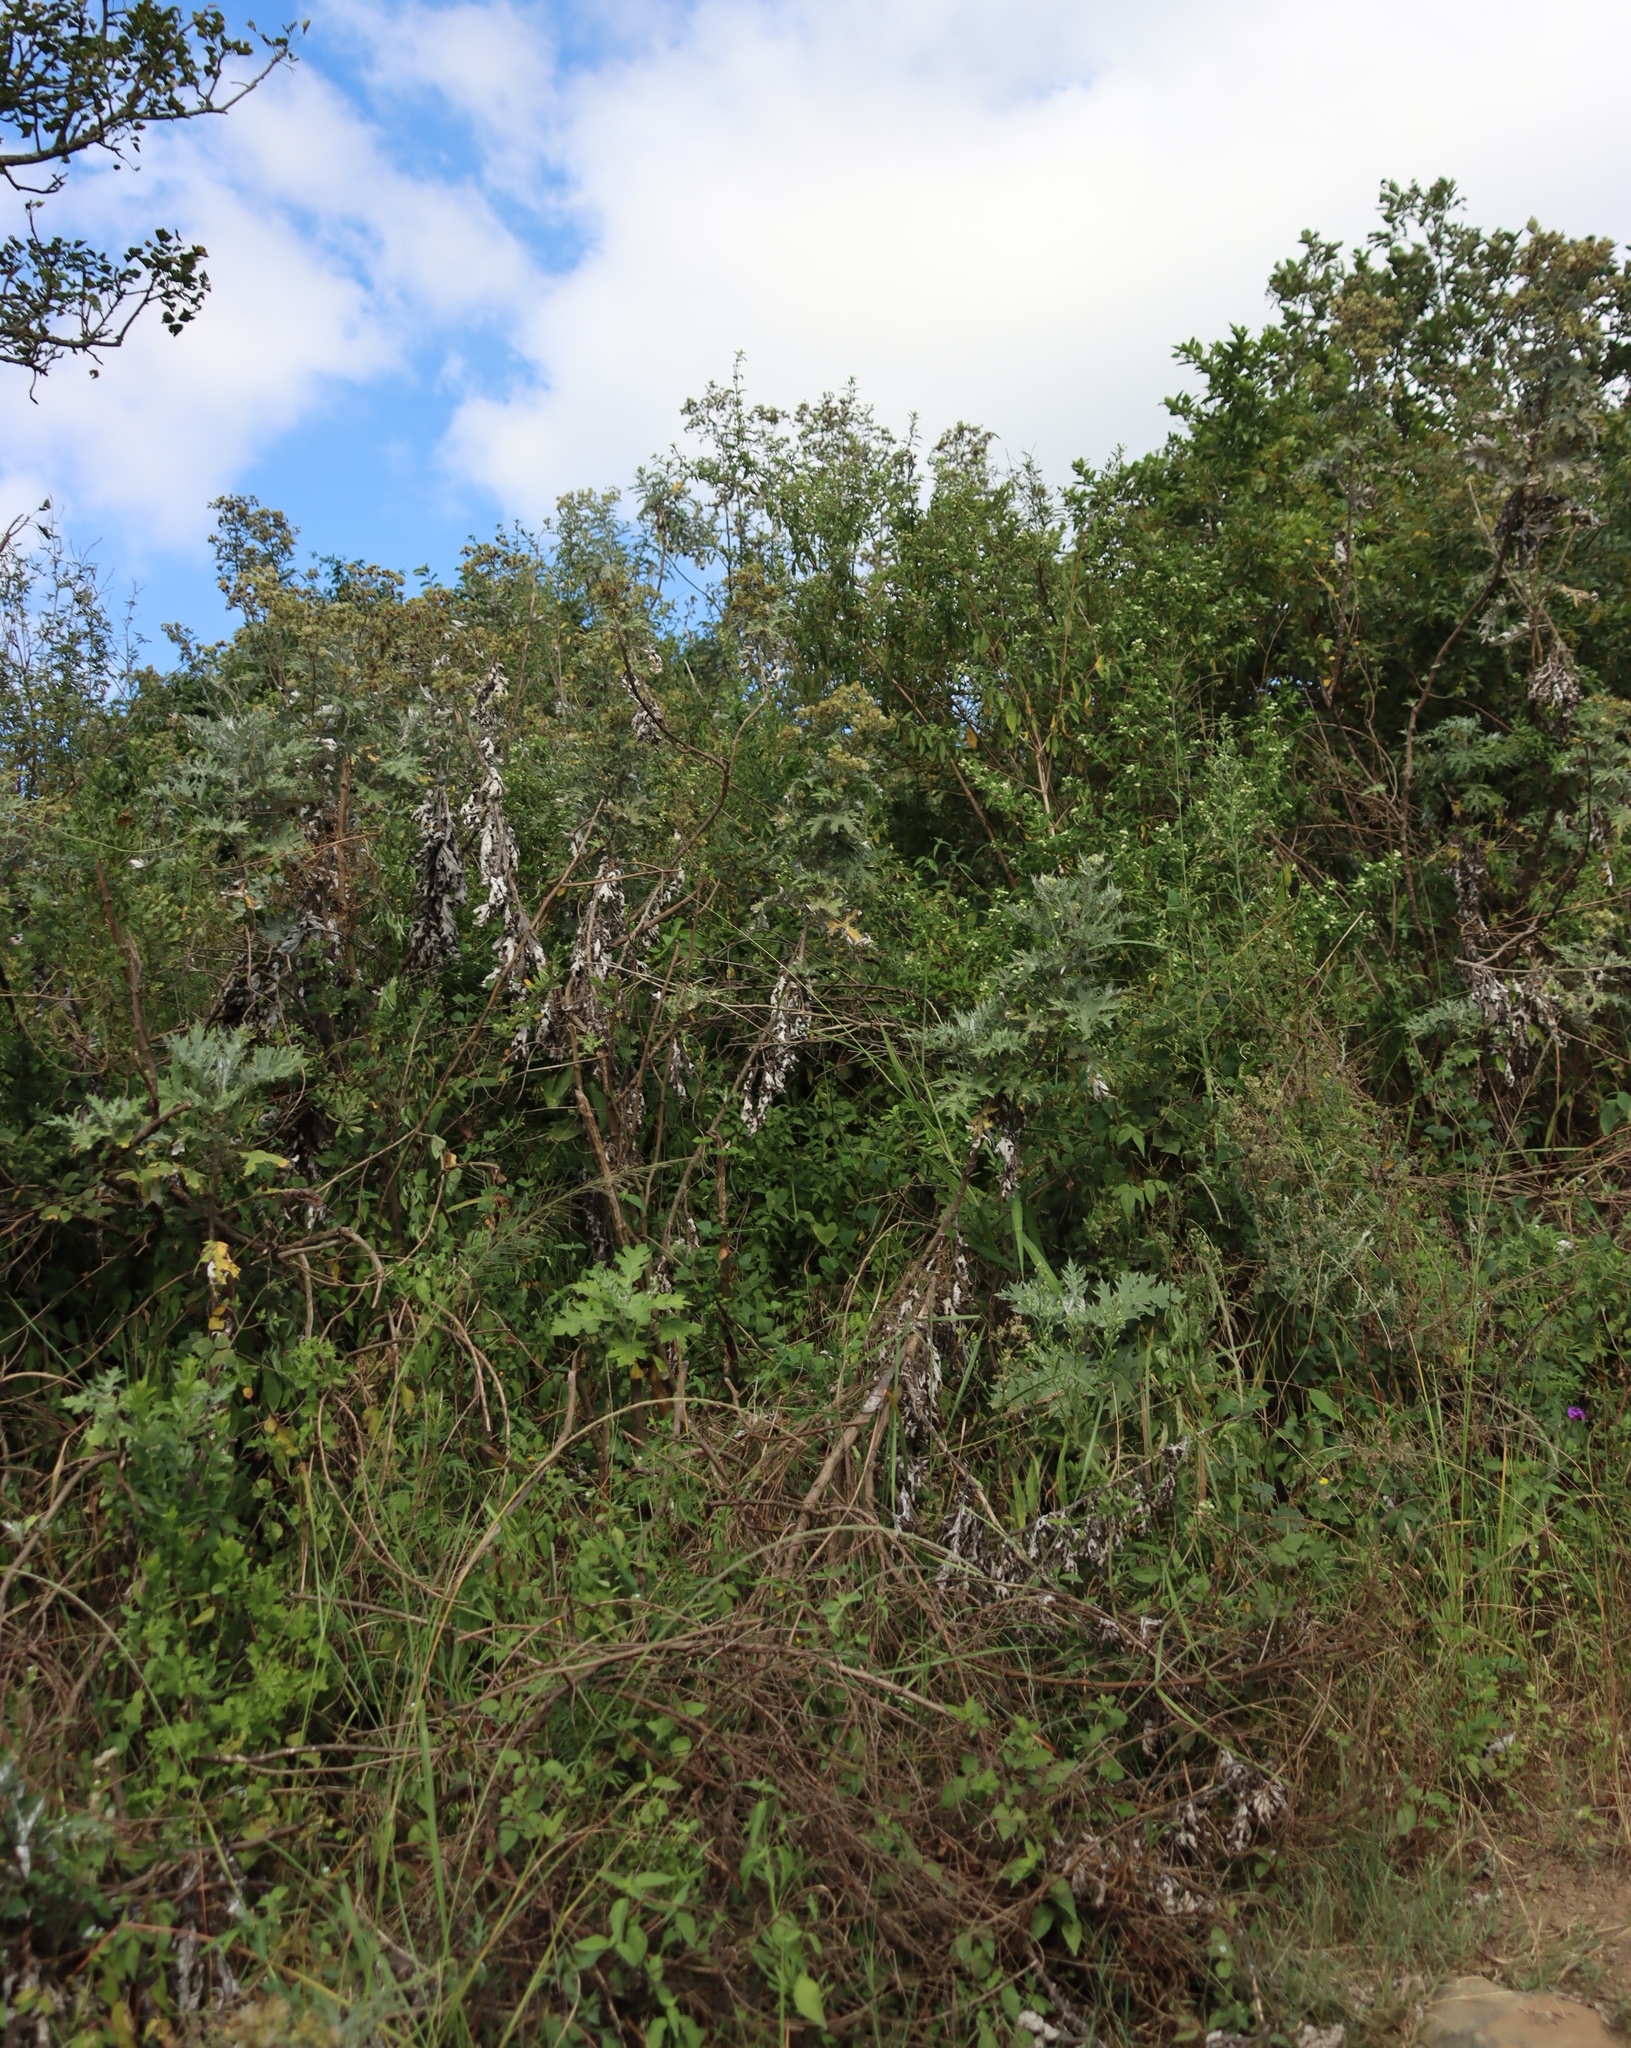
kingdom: Plantae
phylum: Tracheophyta
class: Magnoliopsida
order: Asterales
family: Asteraceae
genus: Berkheya
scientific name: Berkheya bipinnatifida
